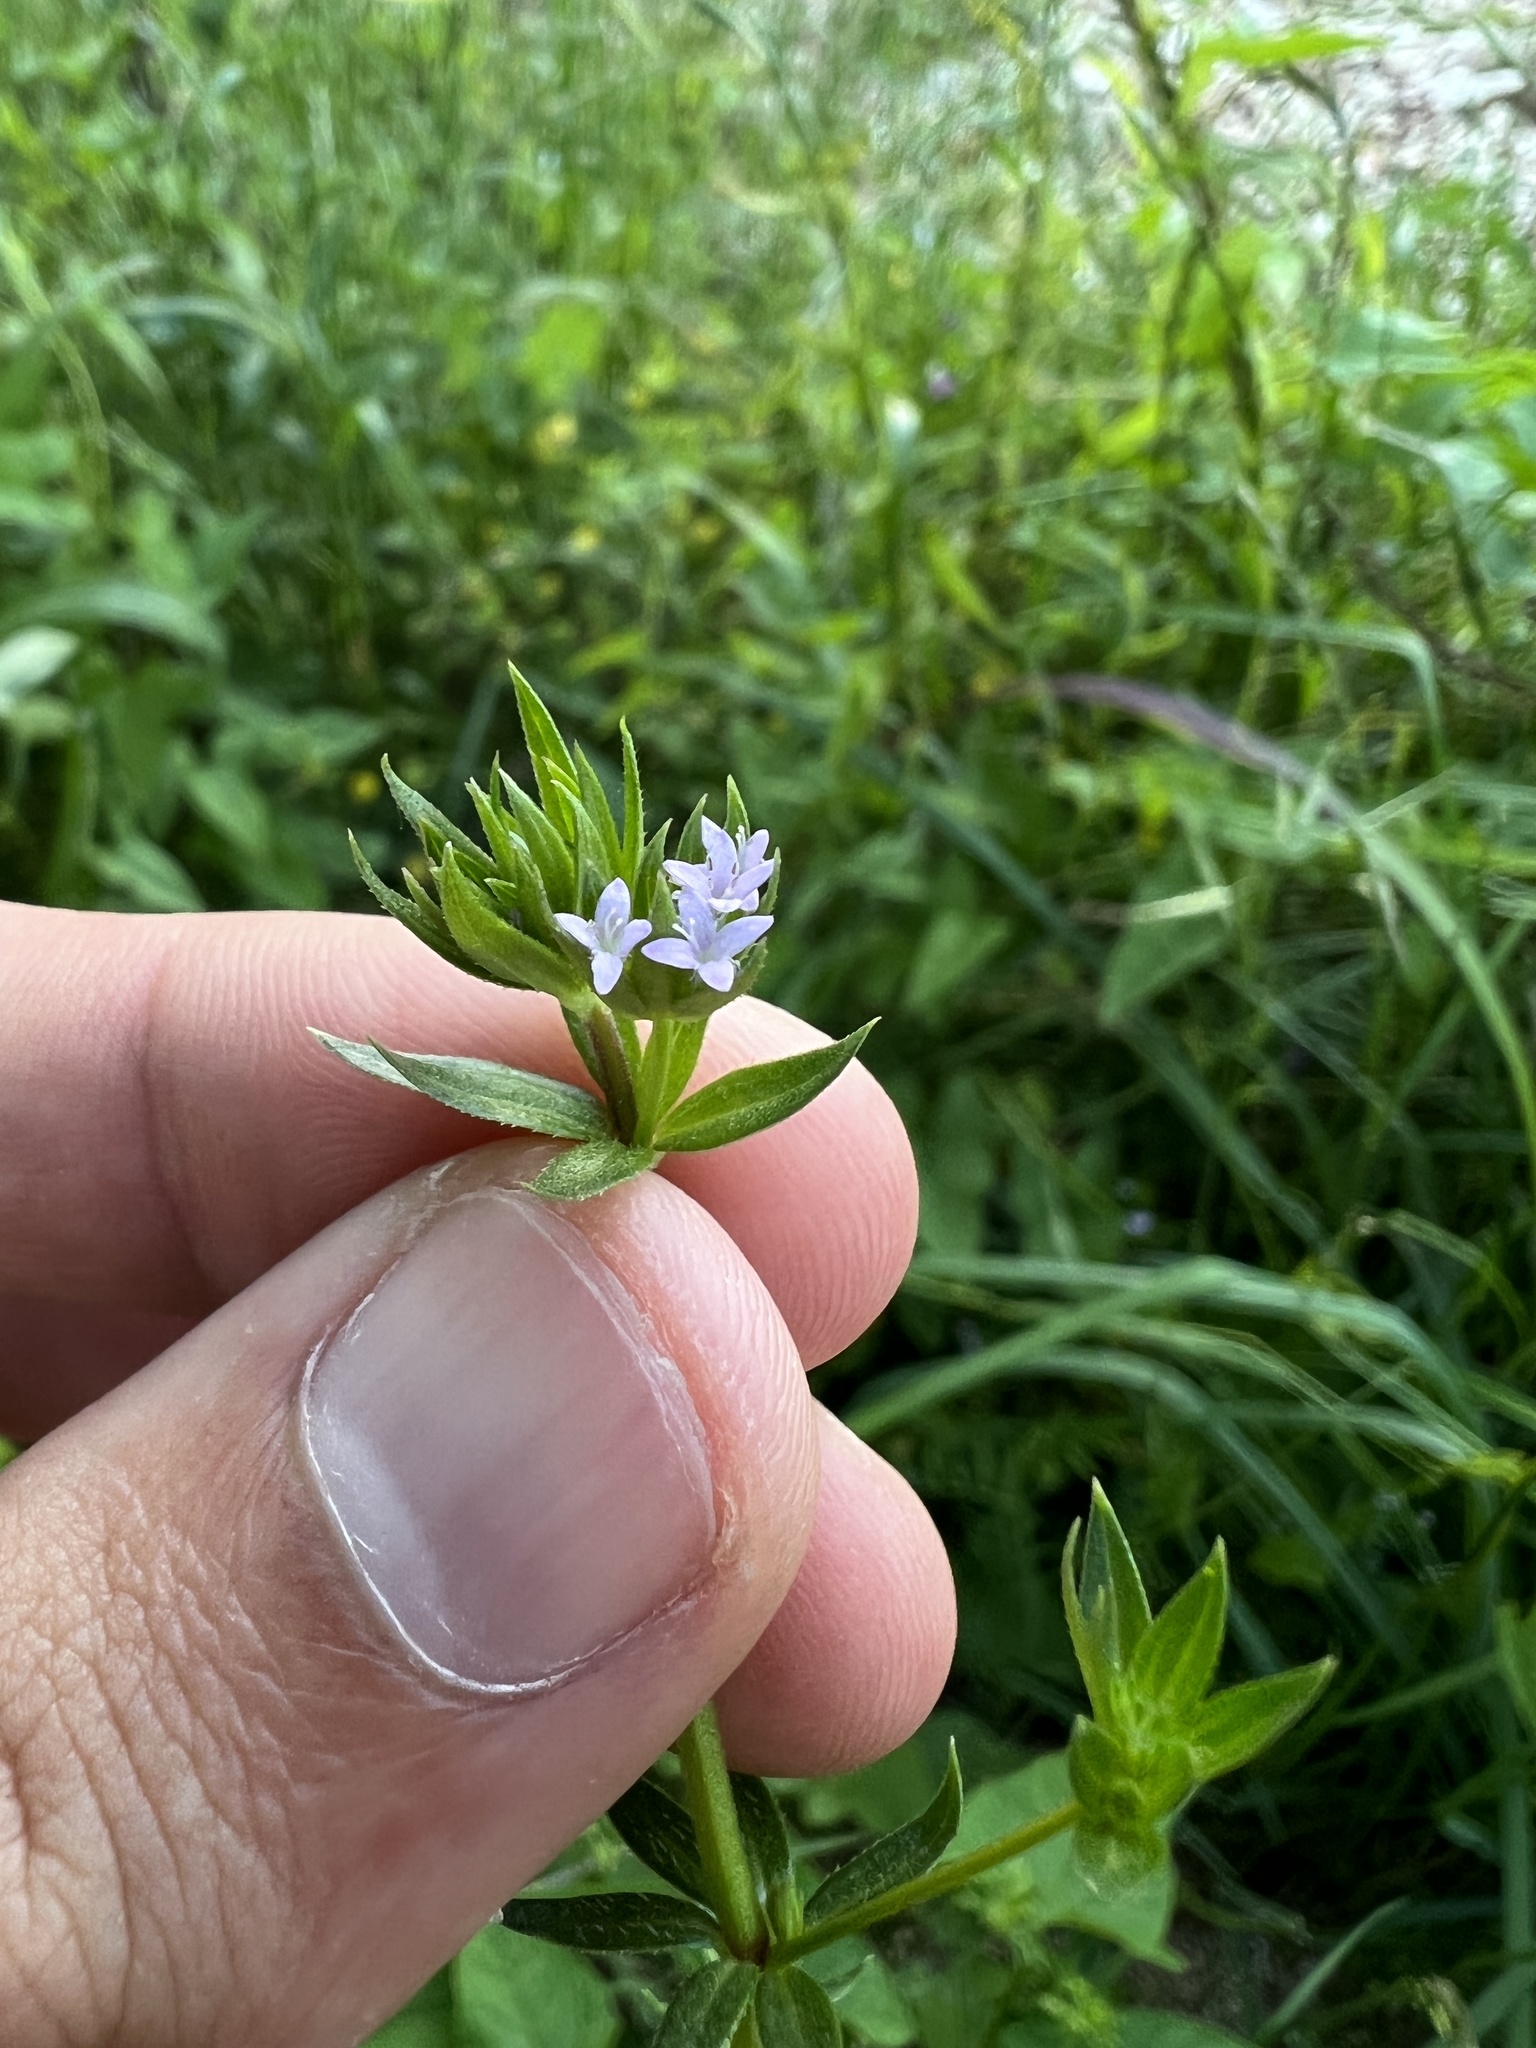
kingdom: Plantae
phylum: Tracheophyta
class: Magnoliopsida
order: Gentianales
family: Rubiaceae
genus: Sherardia
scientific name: Sherardia arvensis
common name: Field madder
